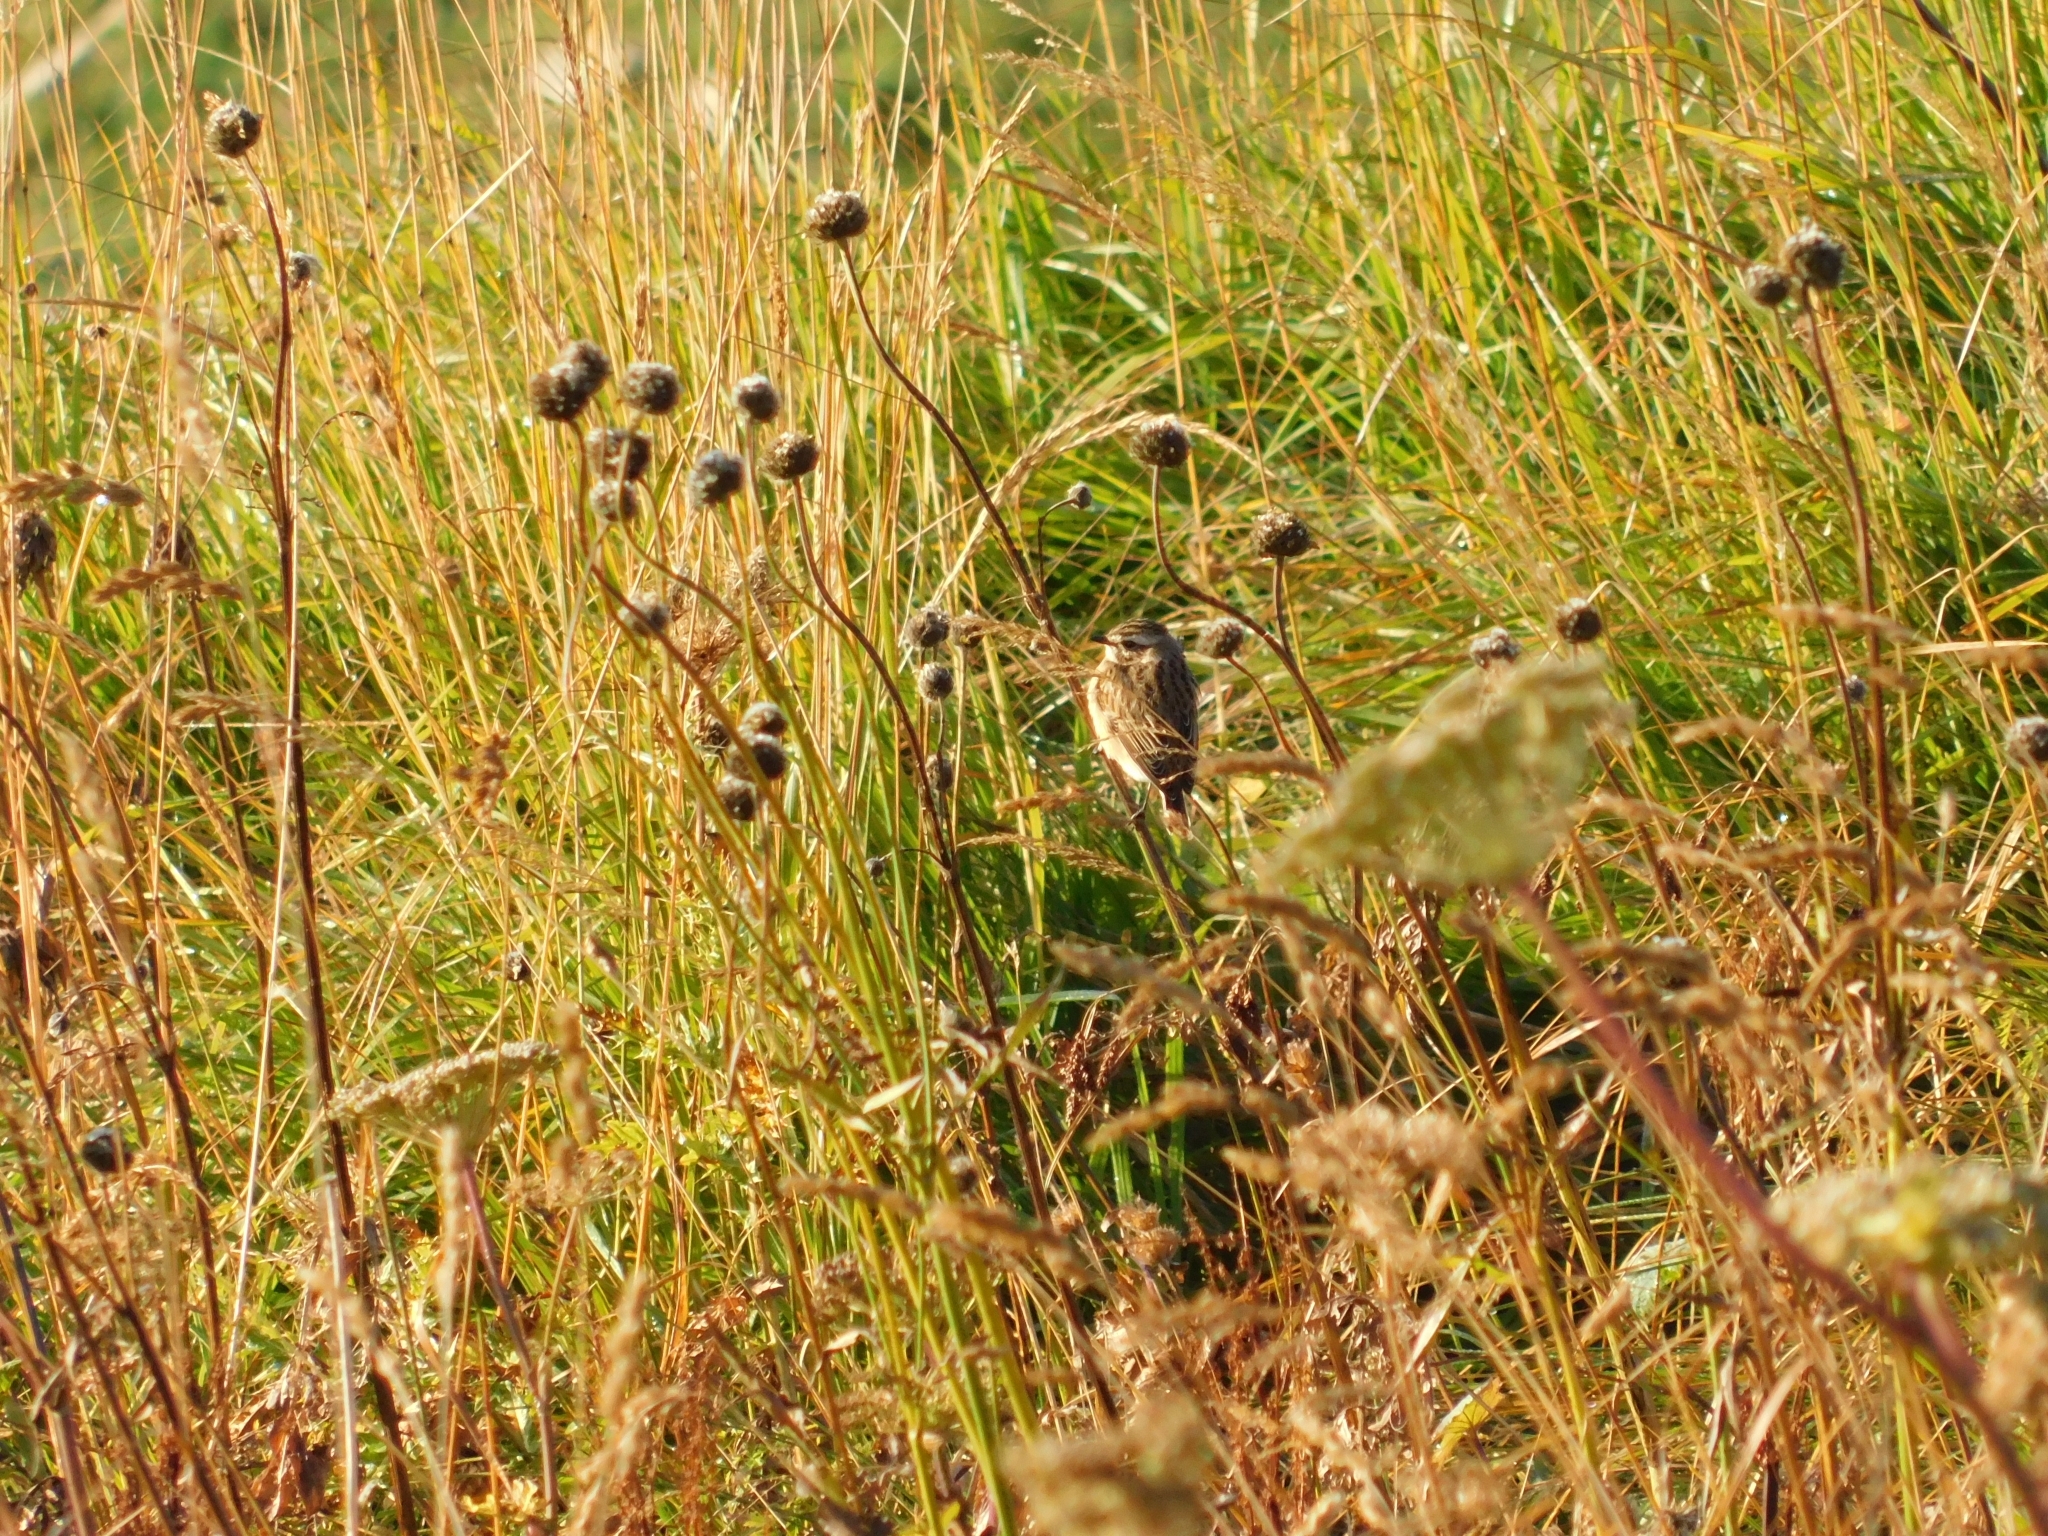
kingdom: Animalia
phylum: Chordata
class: Aves
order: Passeriformes
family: Muscicapidae
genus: Saxicola
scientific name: Saxicola rubetra
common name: Whinchat
